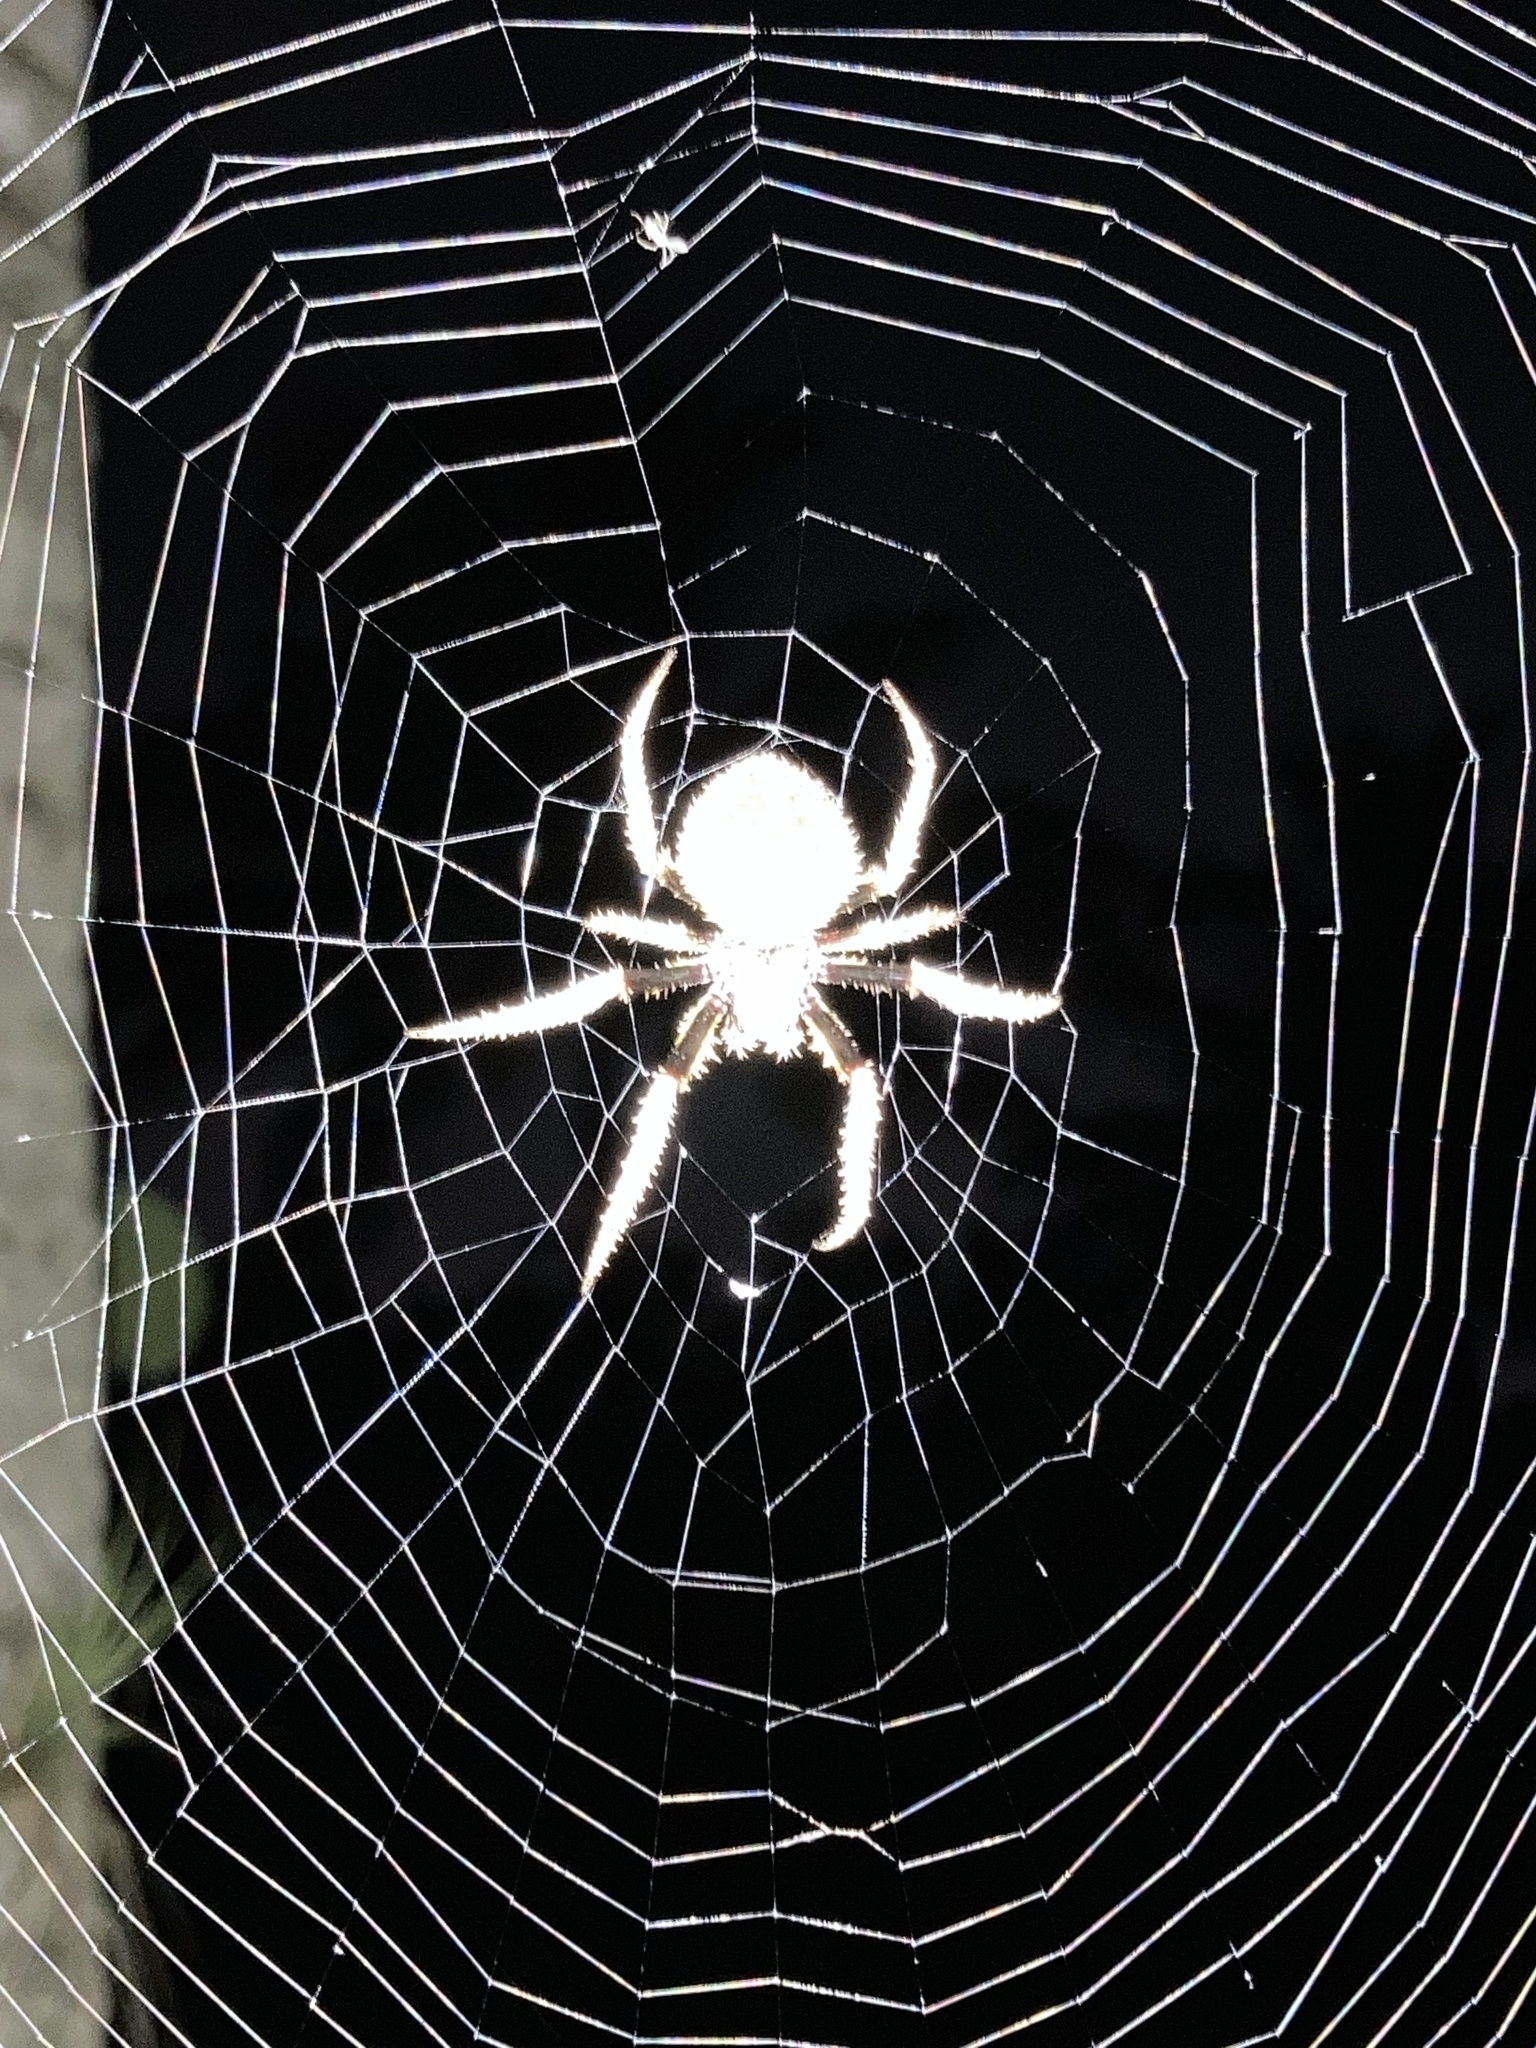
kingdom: Animalia
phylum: Arthropoda
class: Arachnida
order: Araneae
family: Araneidae
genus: Eriophora
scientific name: Eriophora ravilla
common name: Orb weavers
